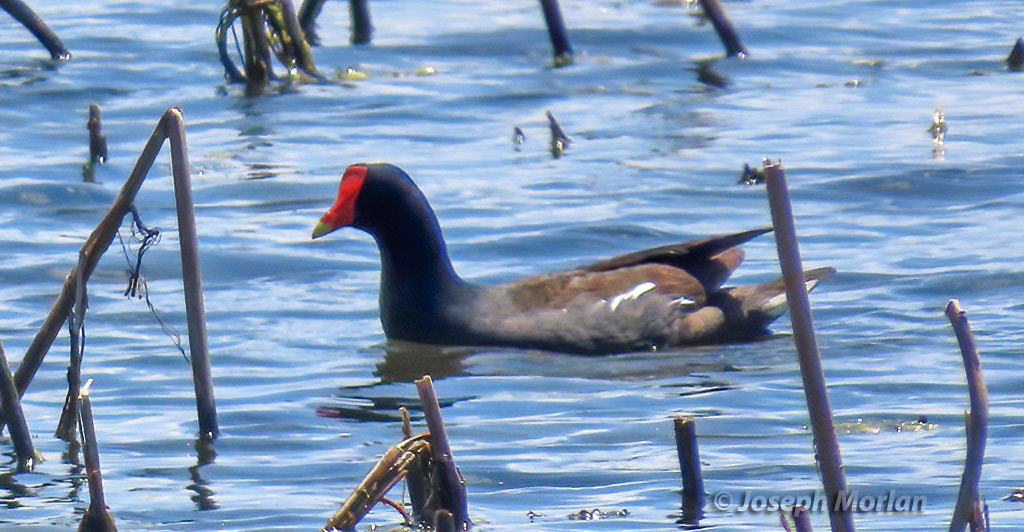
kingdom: Animalia
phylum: Chordata
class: Aves
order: Gruiformes
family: Rallidae
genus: Gallinula
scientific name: Gallinula chloropus
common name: Common moorhen
